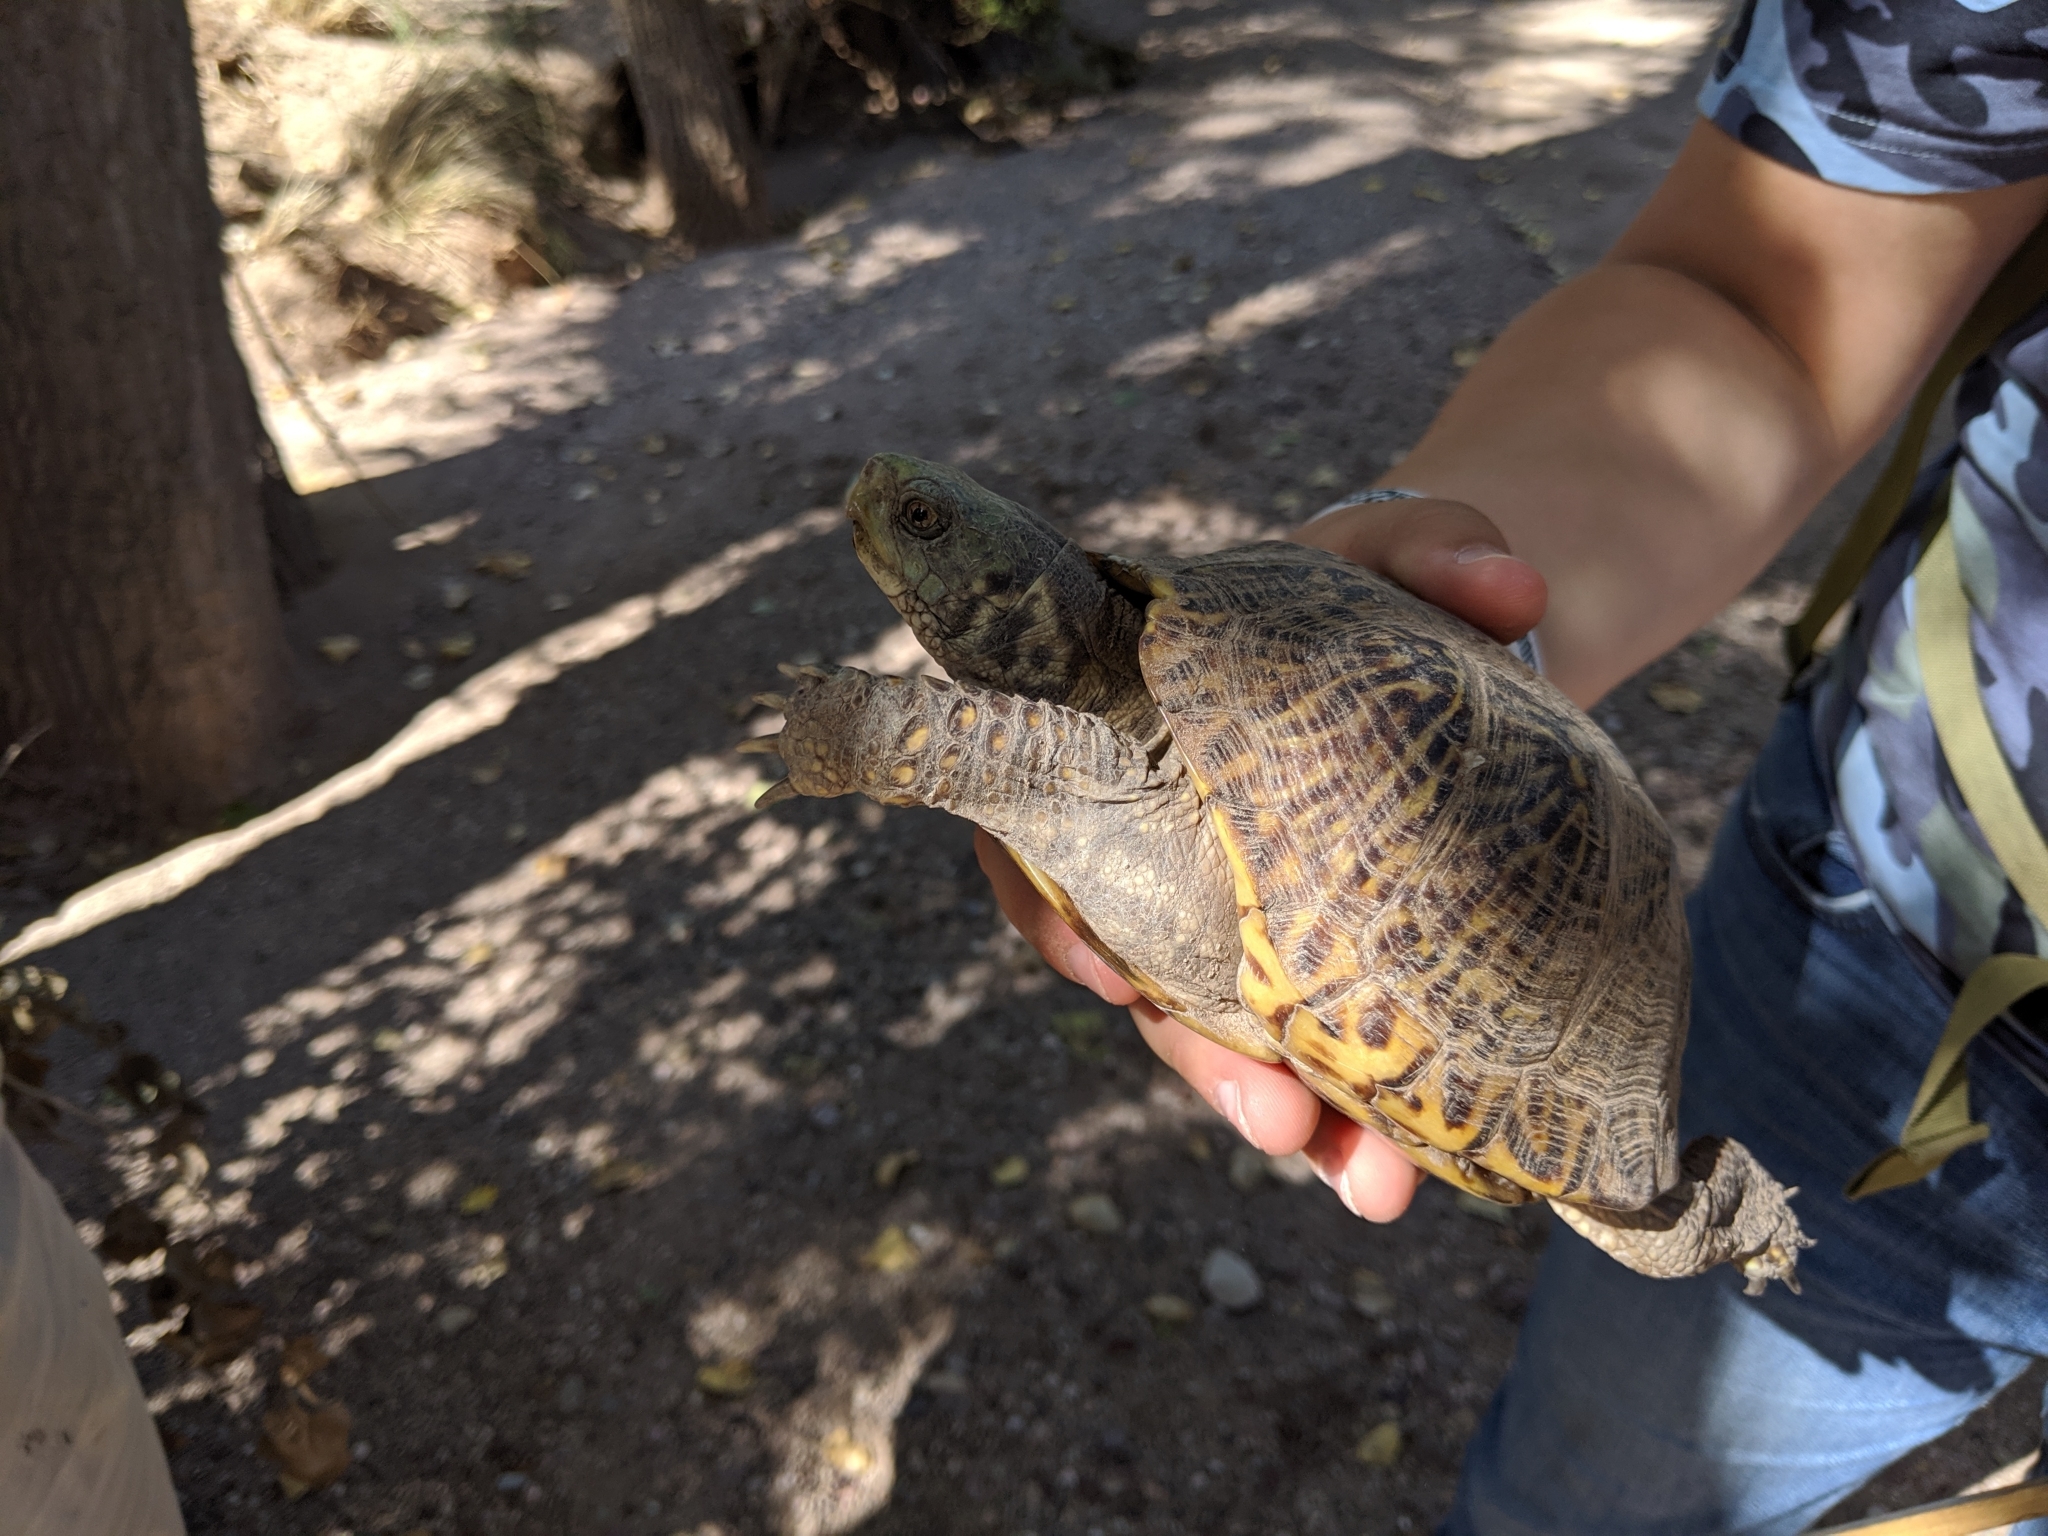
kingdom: Animalia
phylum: Chordata
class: Testudines
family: Emydidae
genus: Terrapene
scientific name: Terrapene ornata
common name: Western box turtle
